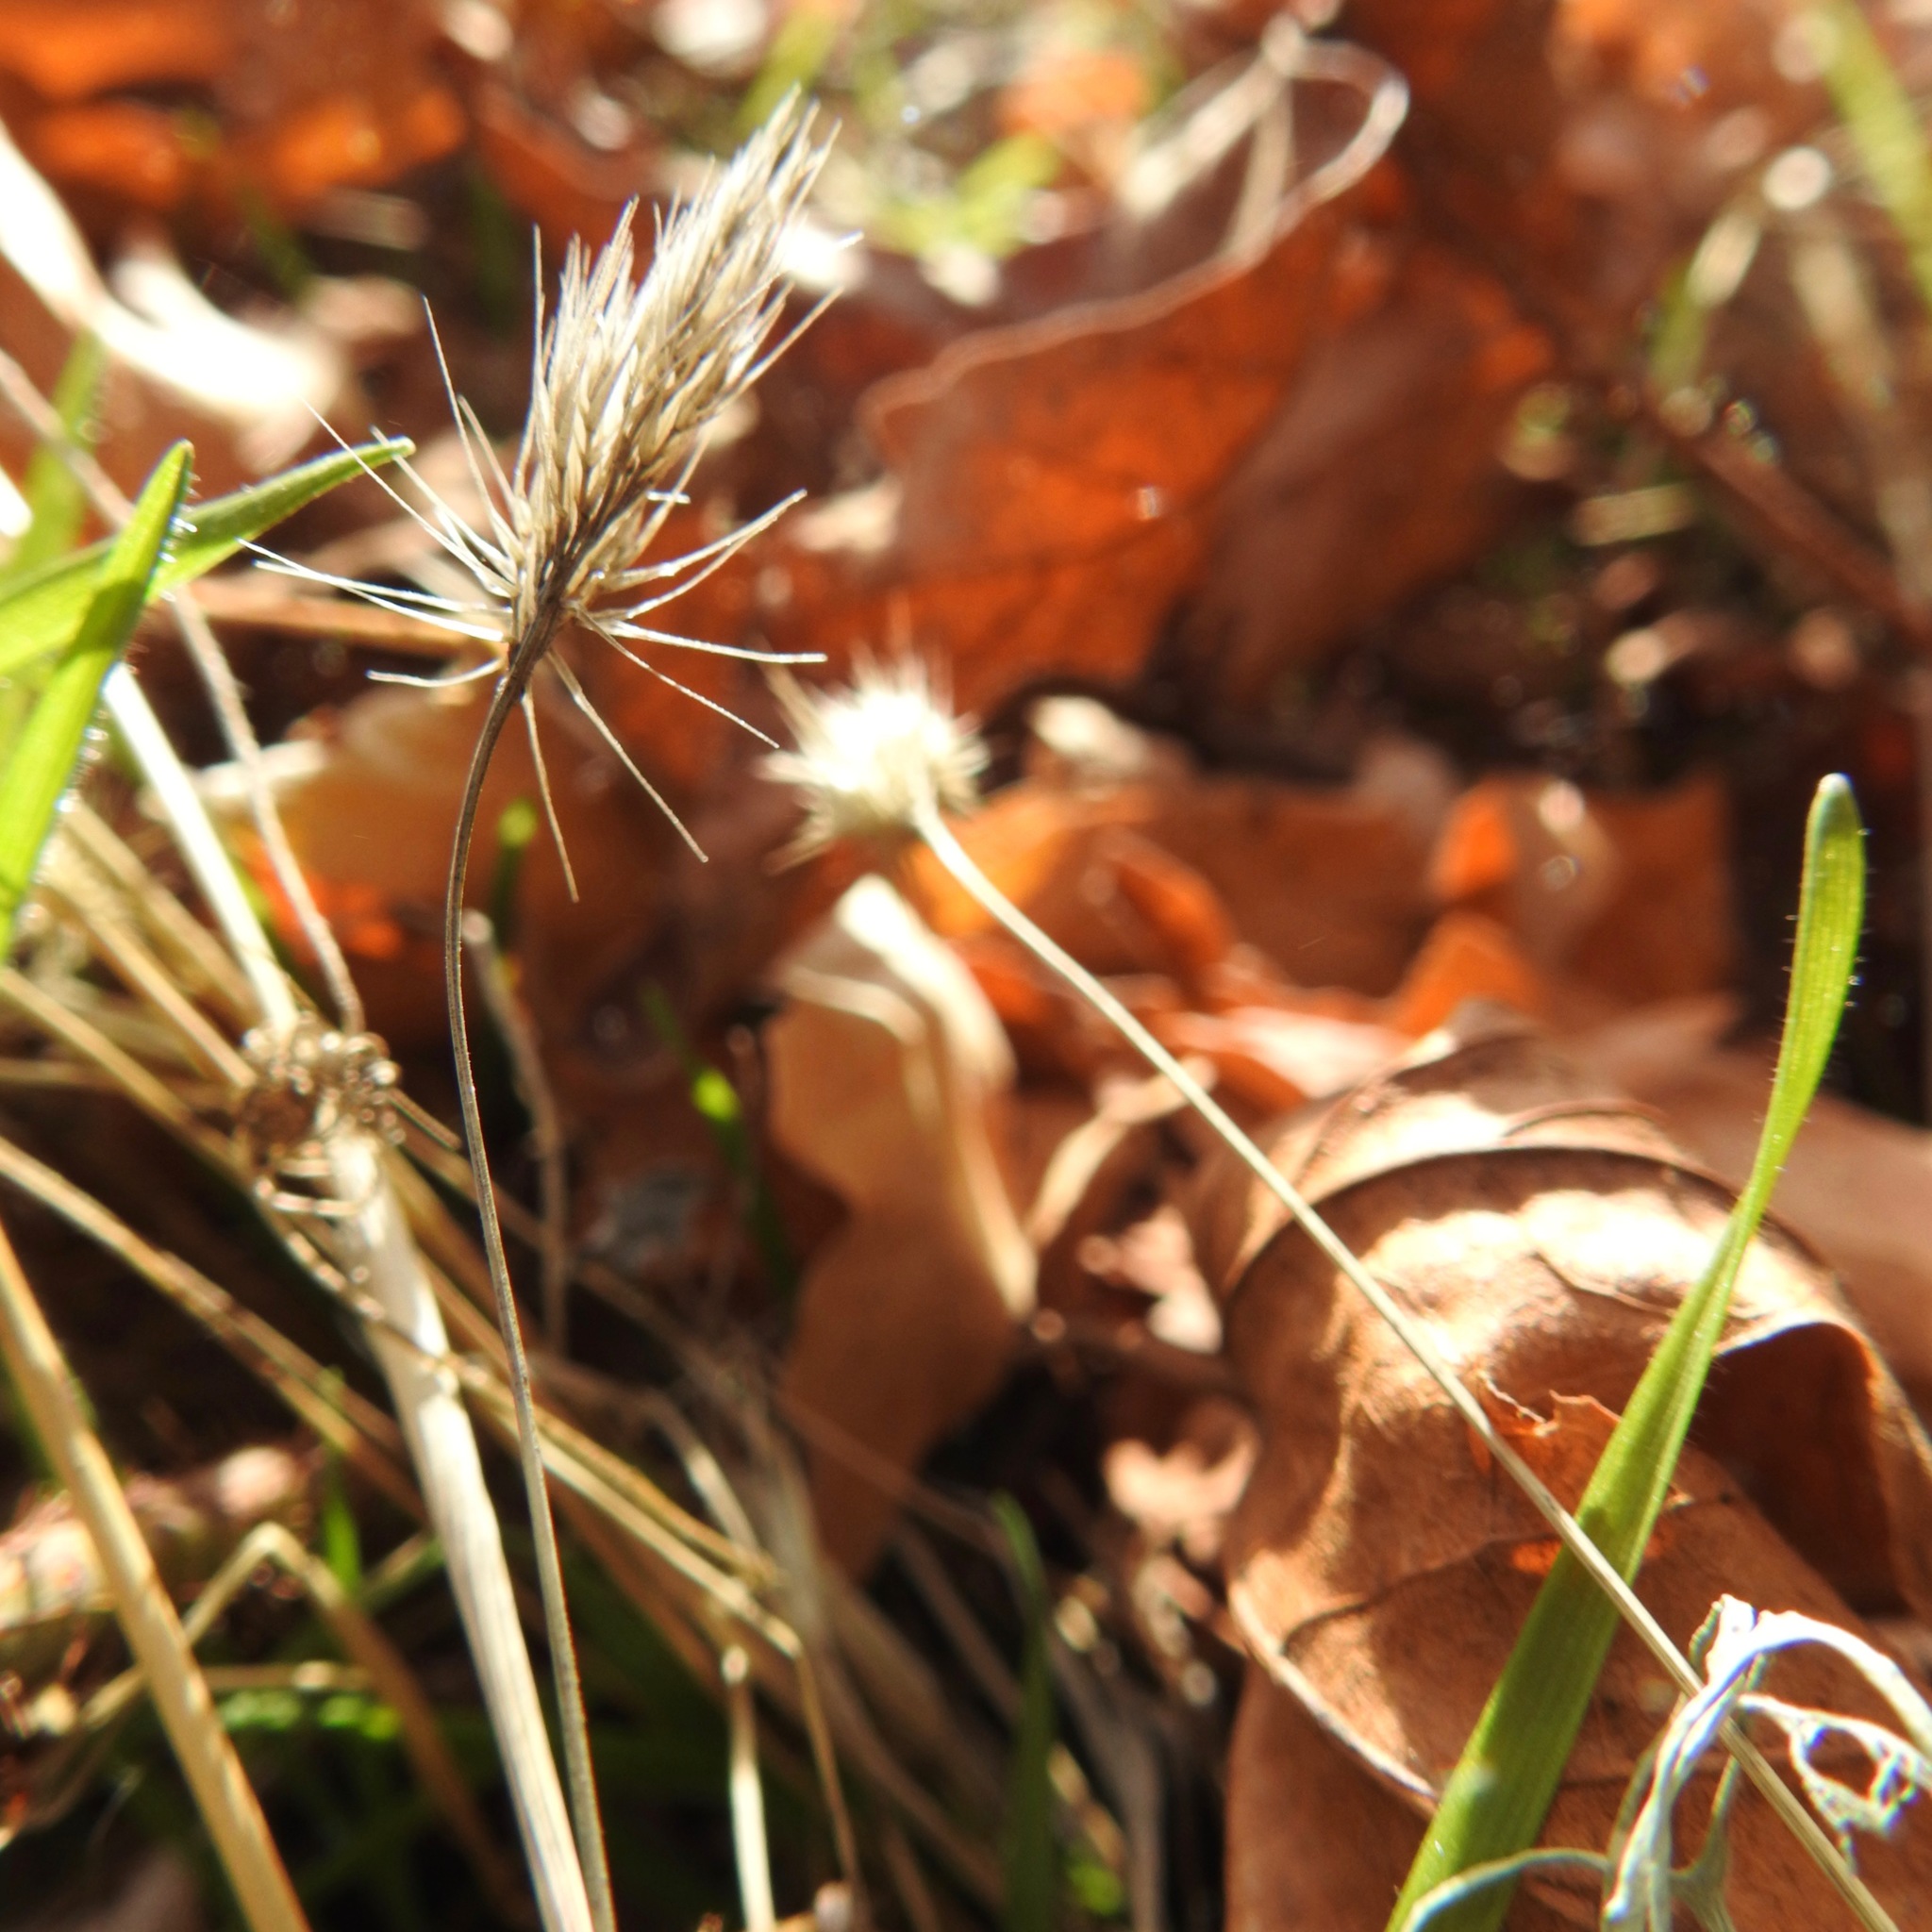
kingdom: Plantae
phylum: Tracheophyta
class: Liliopsida
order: Poales
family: Poaceae
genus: Cynosurus
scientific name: Cynosurus echinatus
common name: Rough dog's-tail
